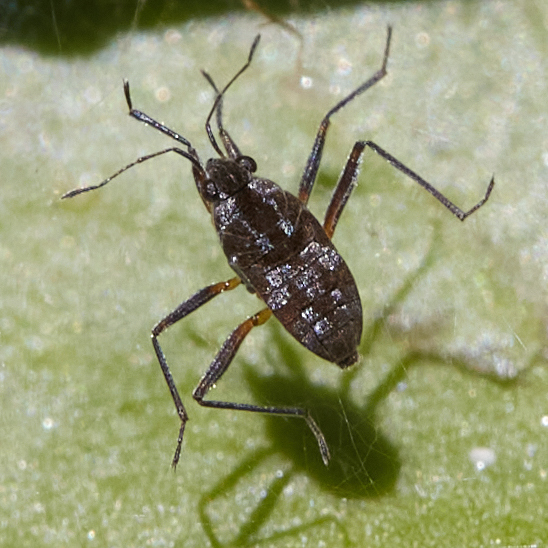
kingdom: Animalia
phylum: Arthropoda
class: Insecta
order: Hemiptera
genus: Kirkaldya
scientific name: Kirkaldya
